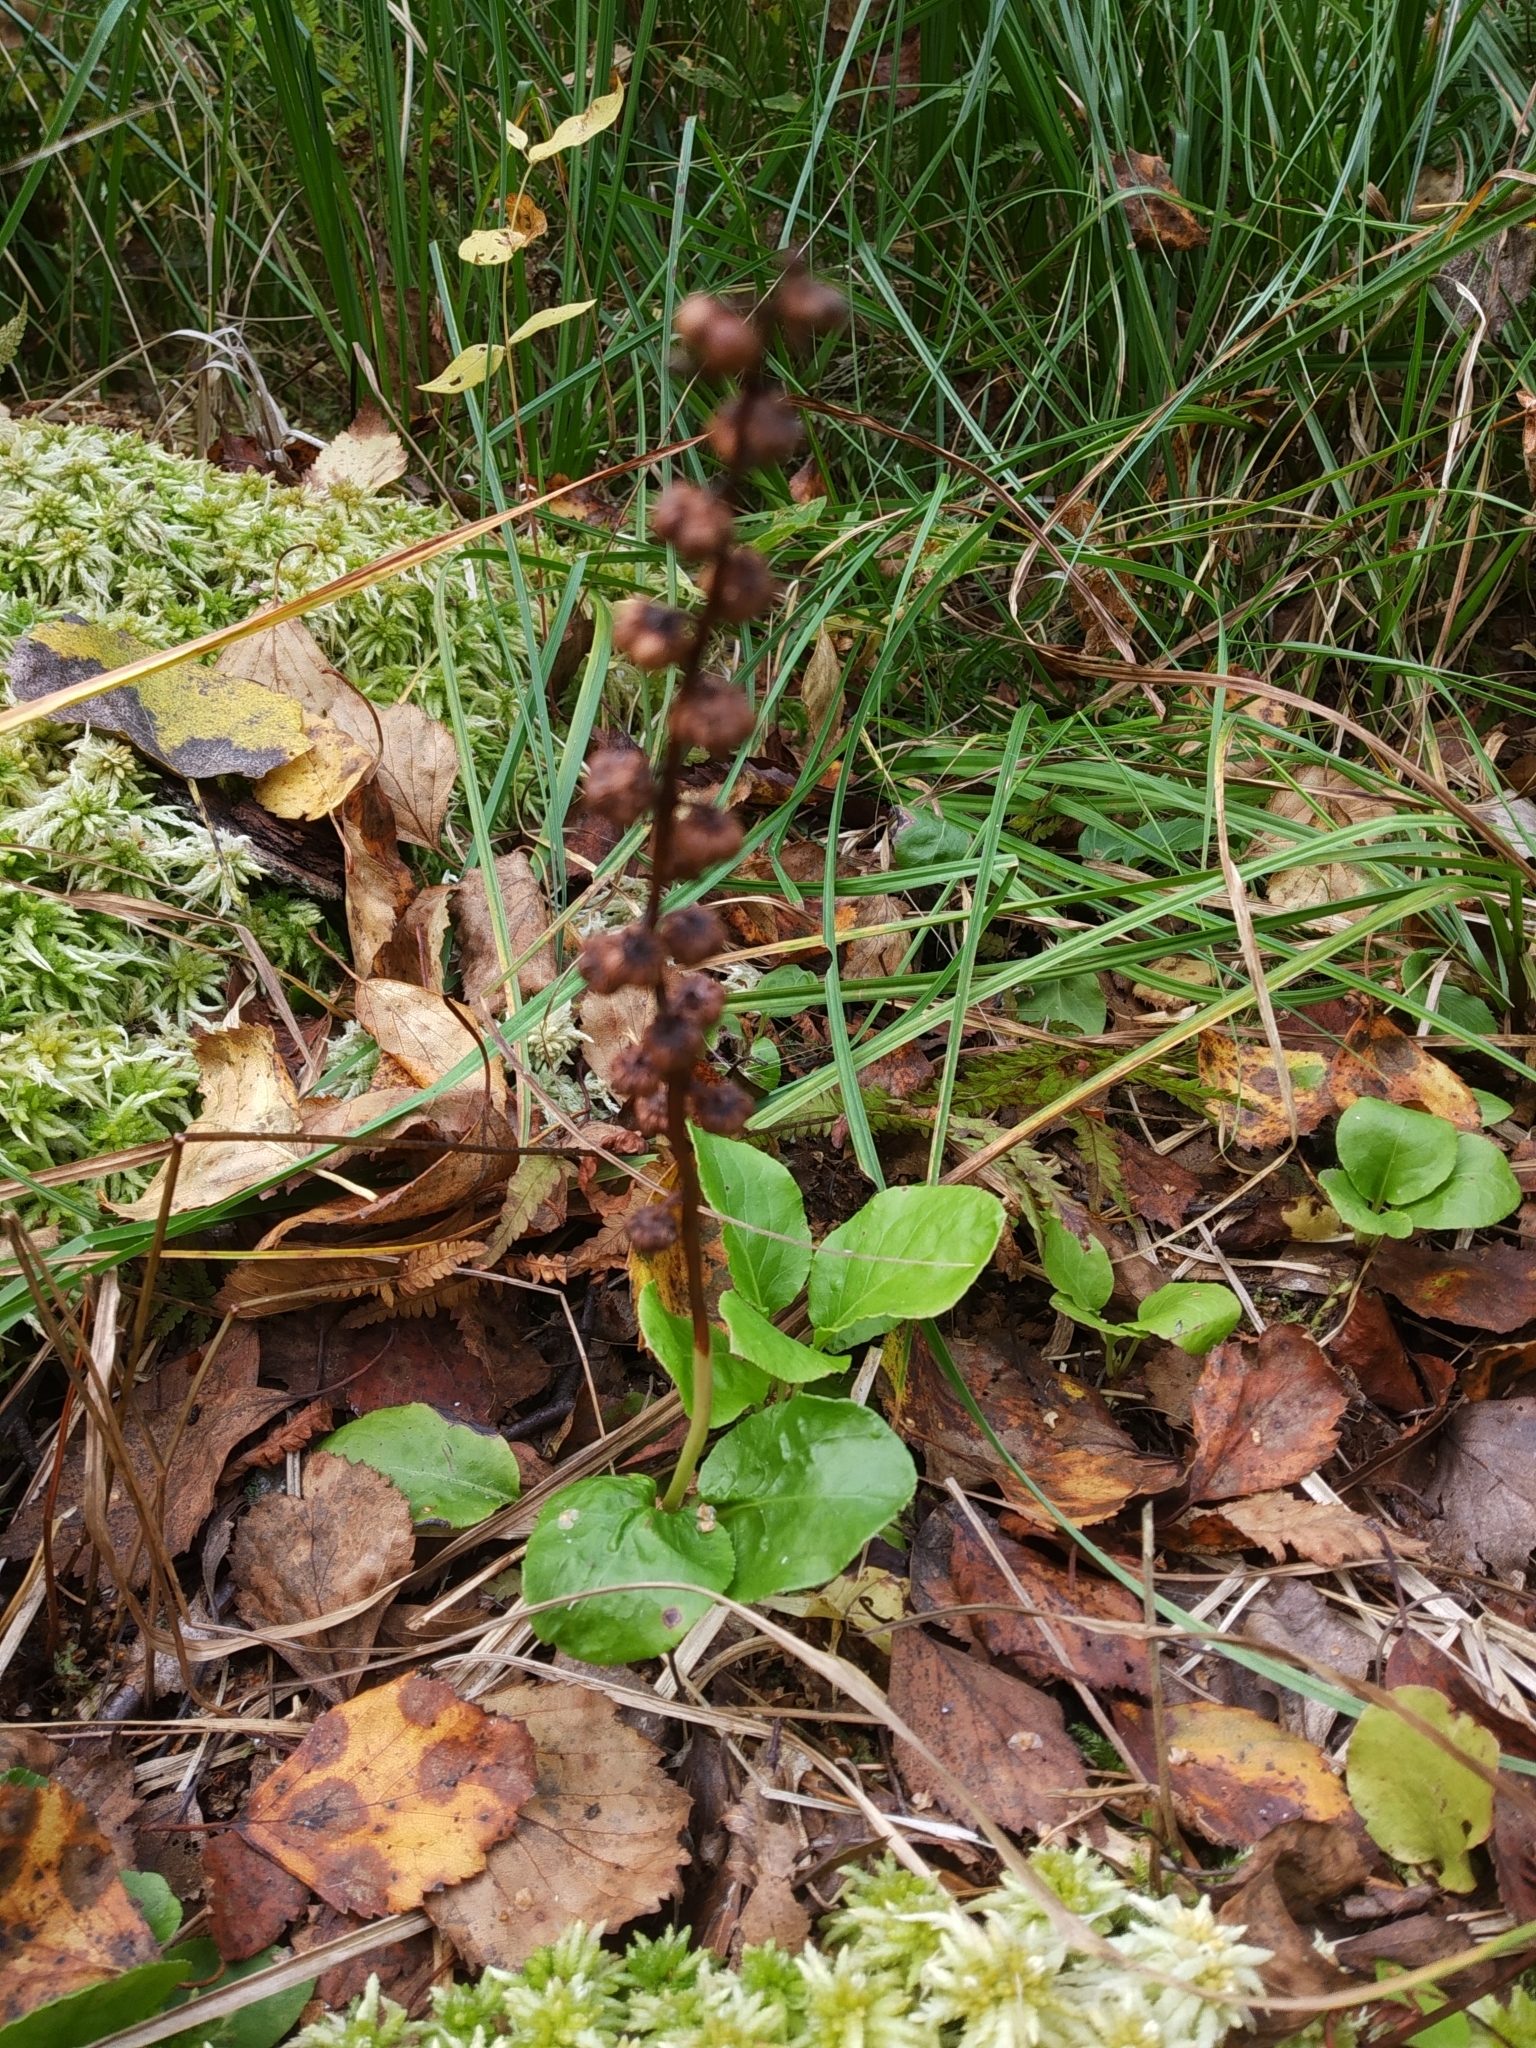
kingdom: Plantae
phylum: Tracheophyta
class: Magnoliopsida
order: Ericales
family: Ericaceae
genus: Pyrola
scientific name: Pyrola minor
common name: Common wintergreen
